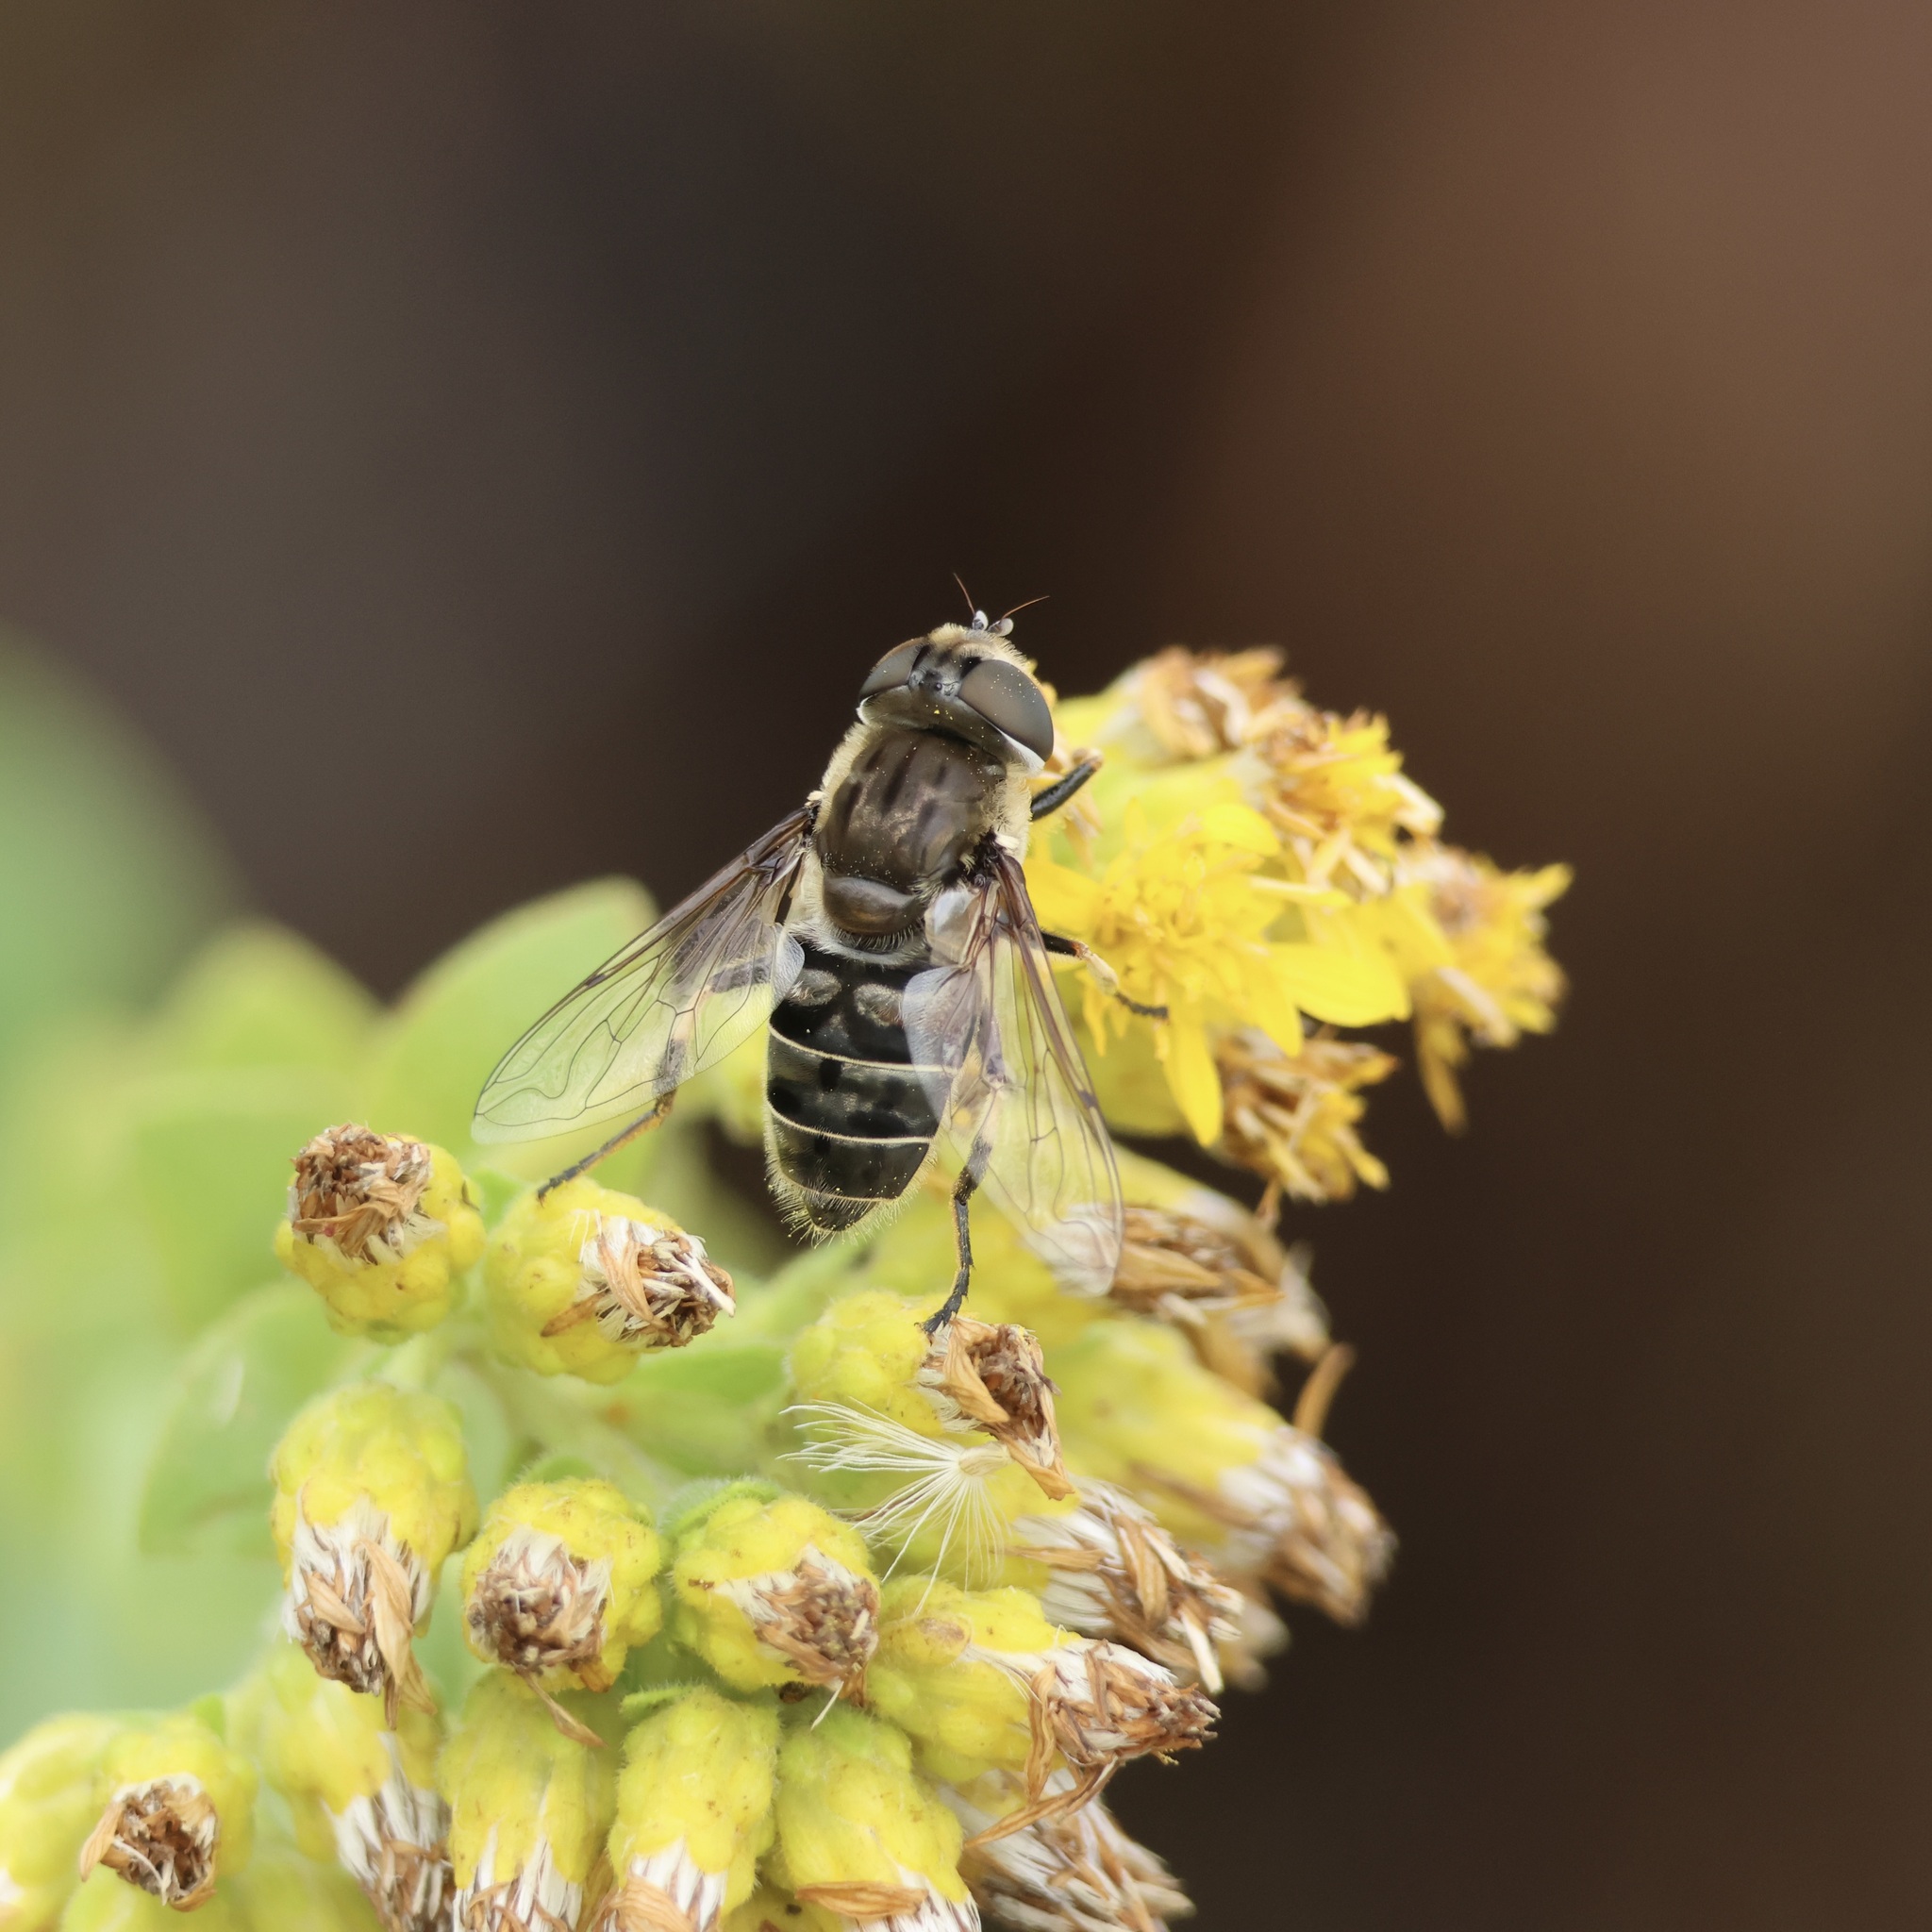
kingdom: Animalia
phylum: Arthropoda
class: Insecta
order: Diptera
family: Syrphidae
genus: Eristalis
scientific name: Eristalis dimidiata
